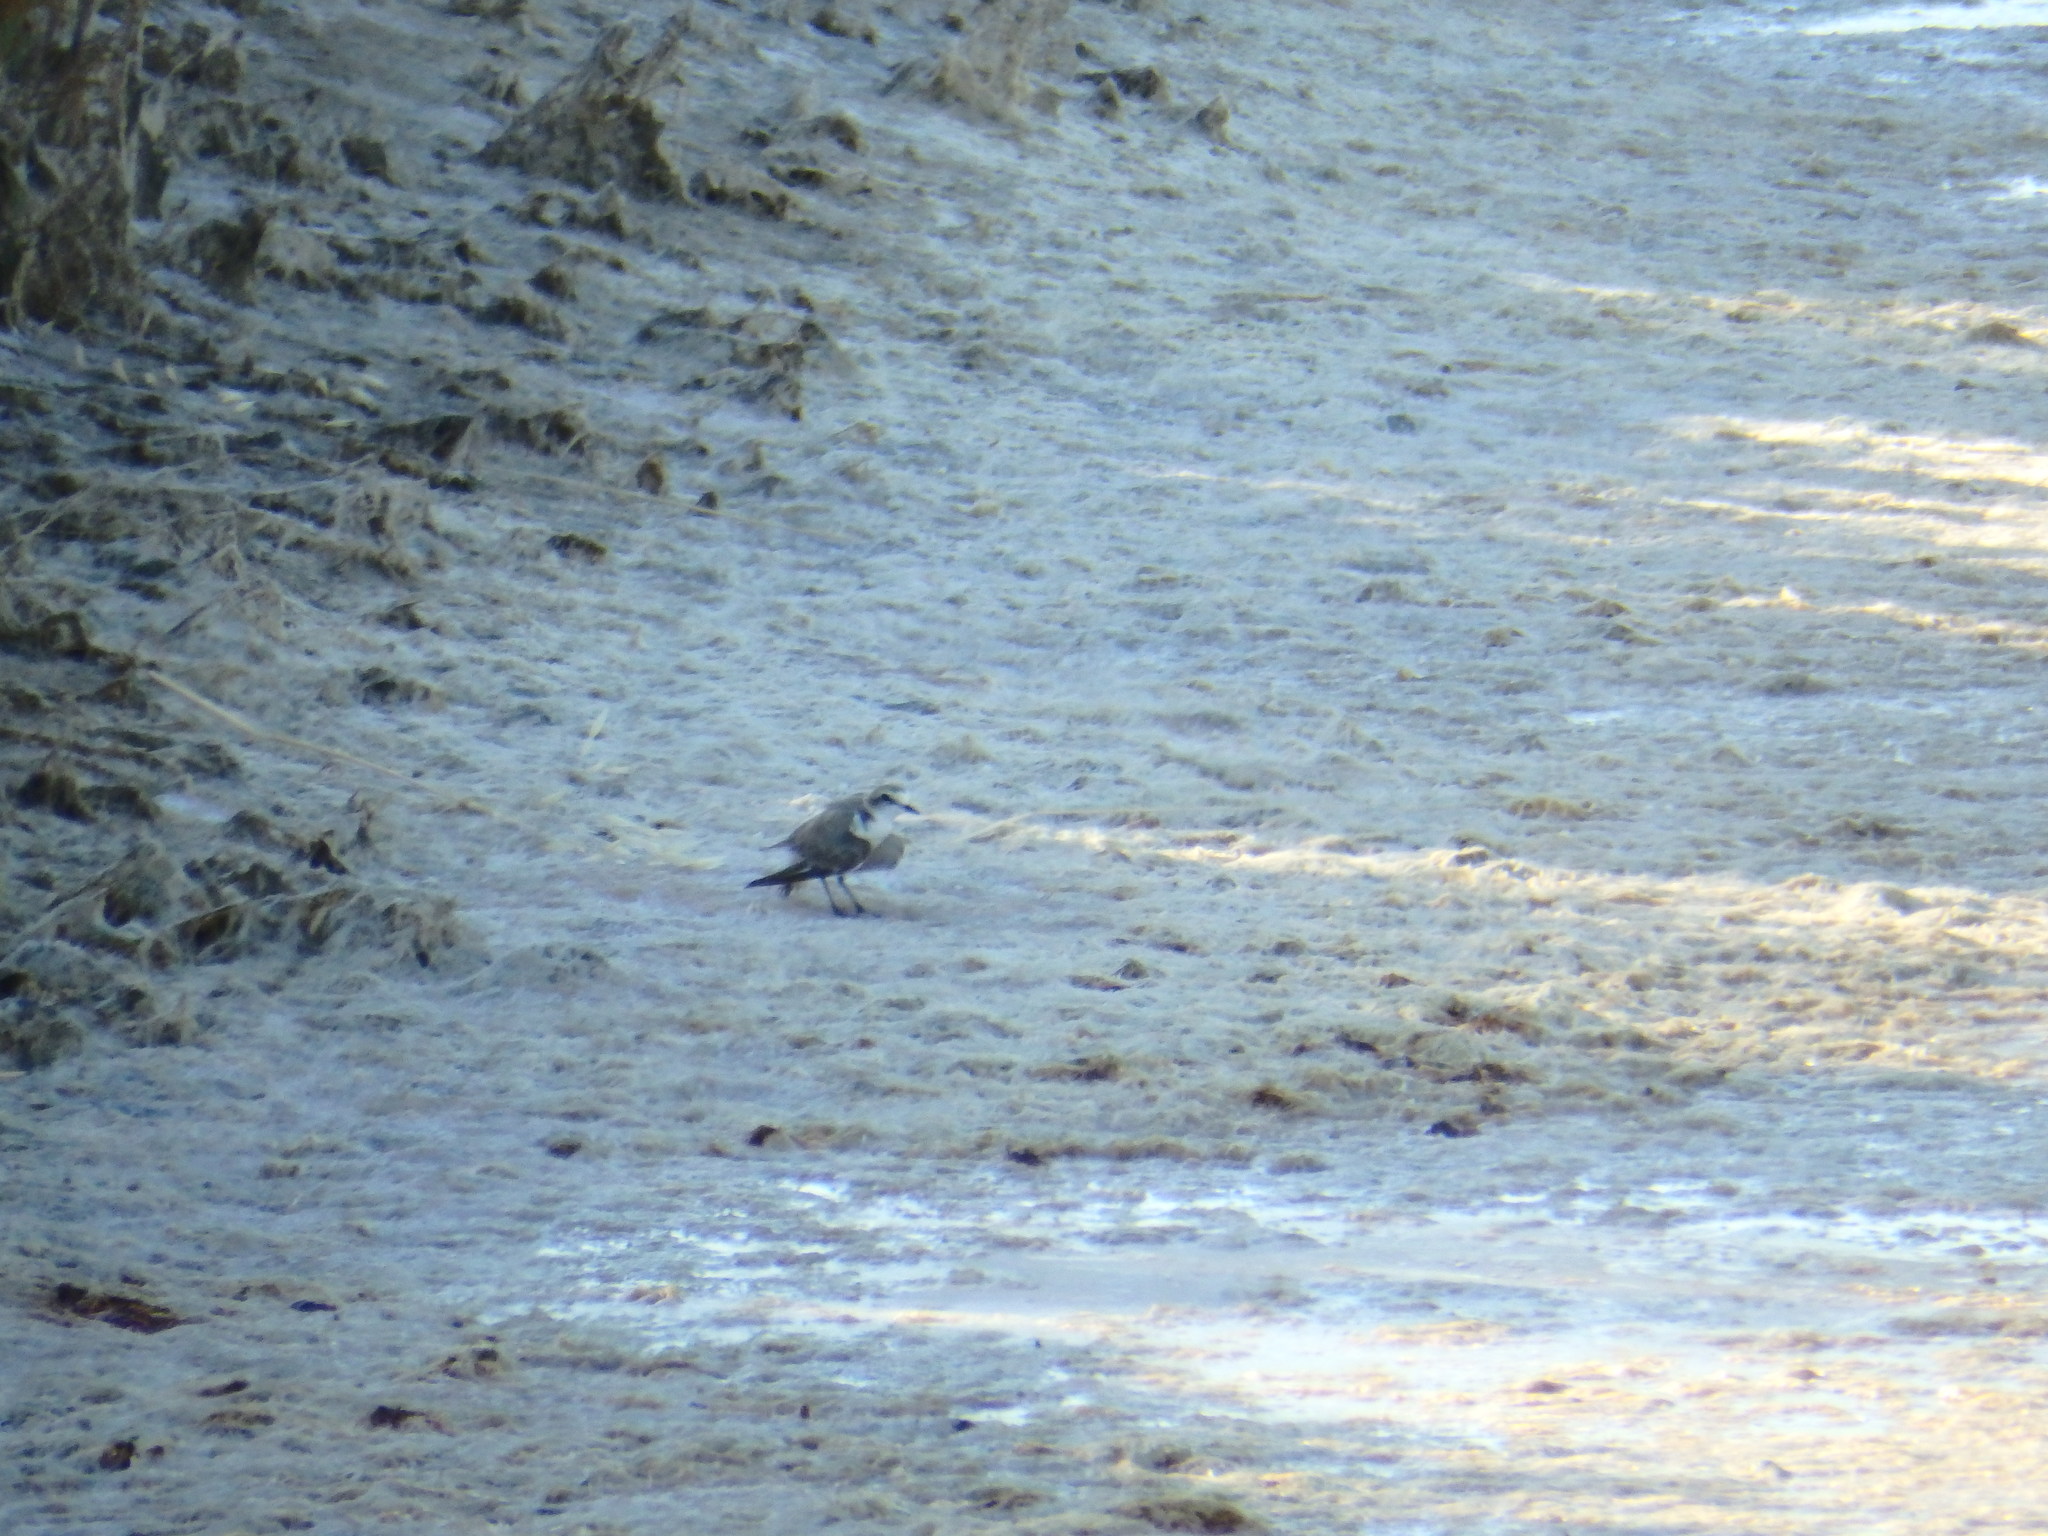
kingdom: Animalia
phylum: Chordata
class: Aves
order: Charadriiformes
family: Charadriidae
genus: Charadrius
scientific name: Charadrius alexandrinus
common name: Kentish plover
